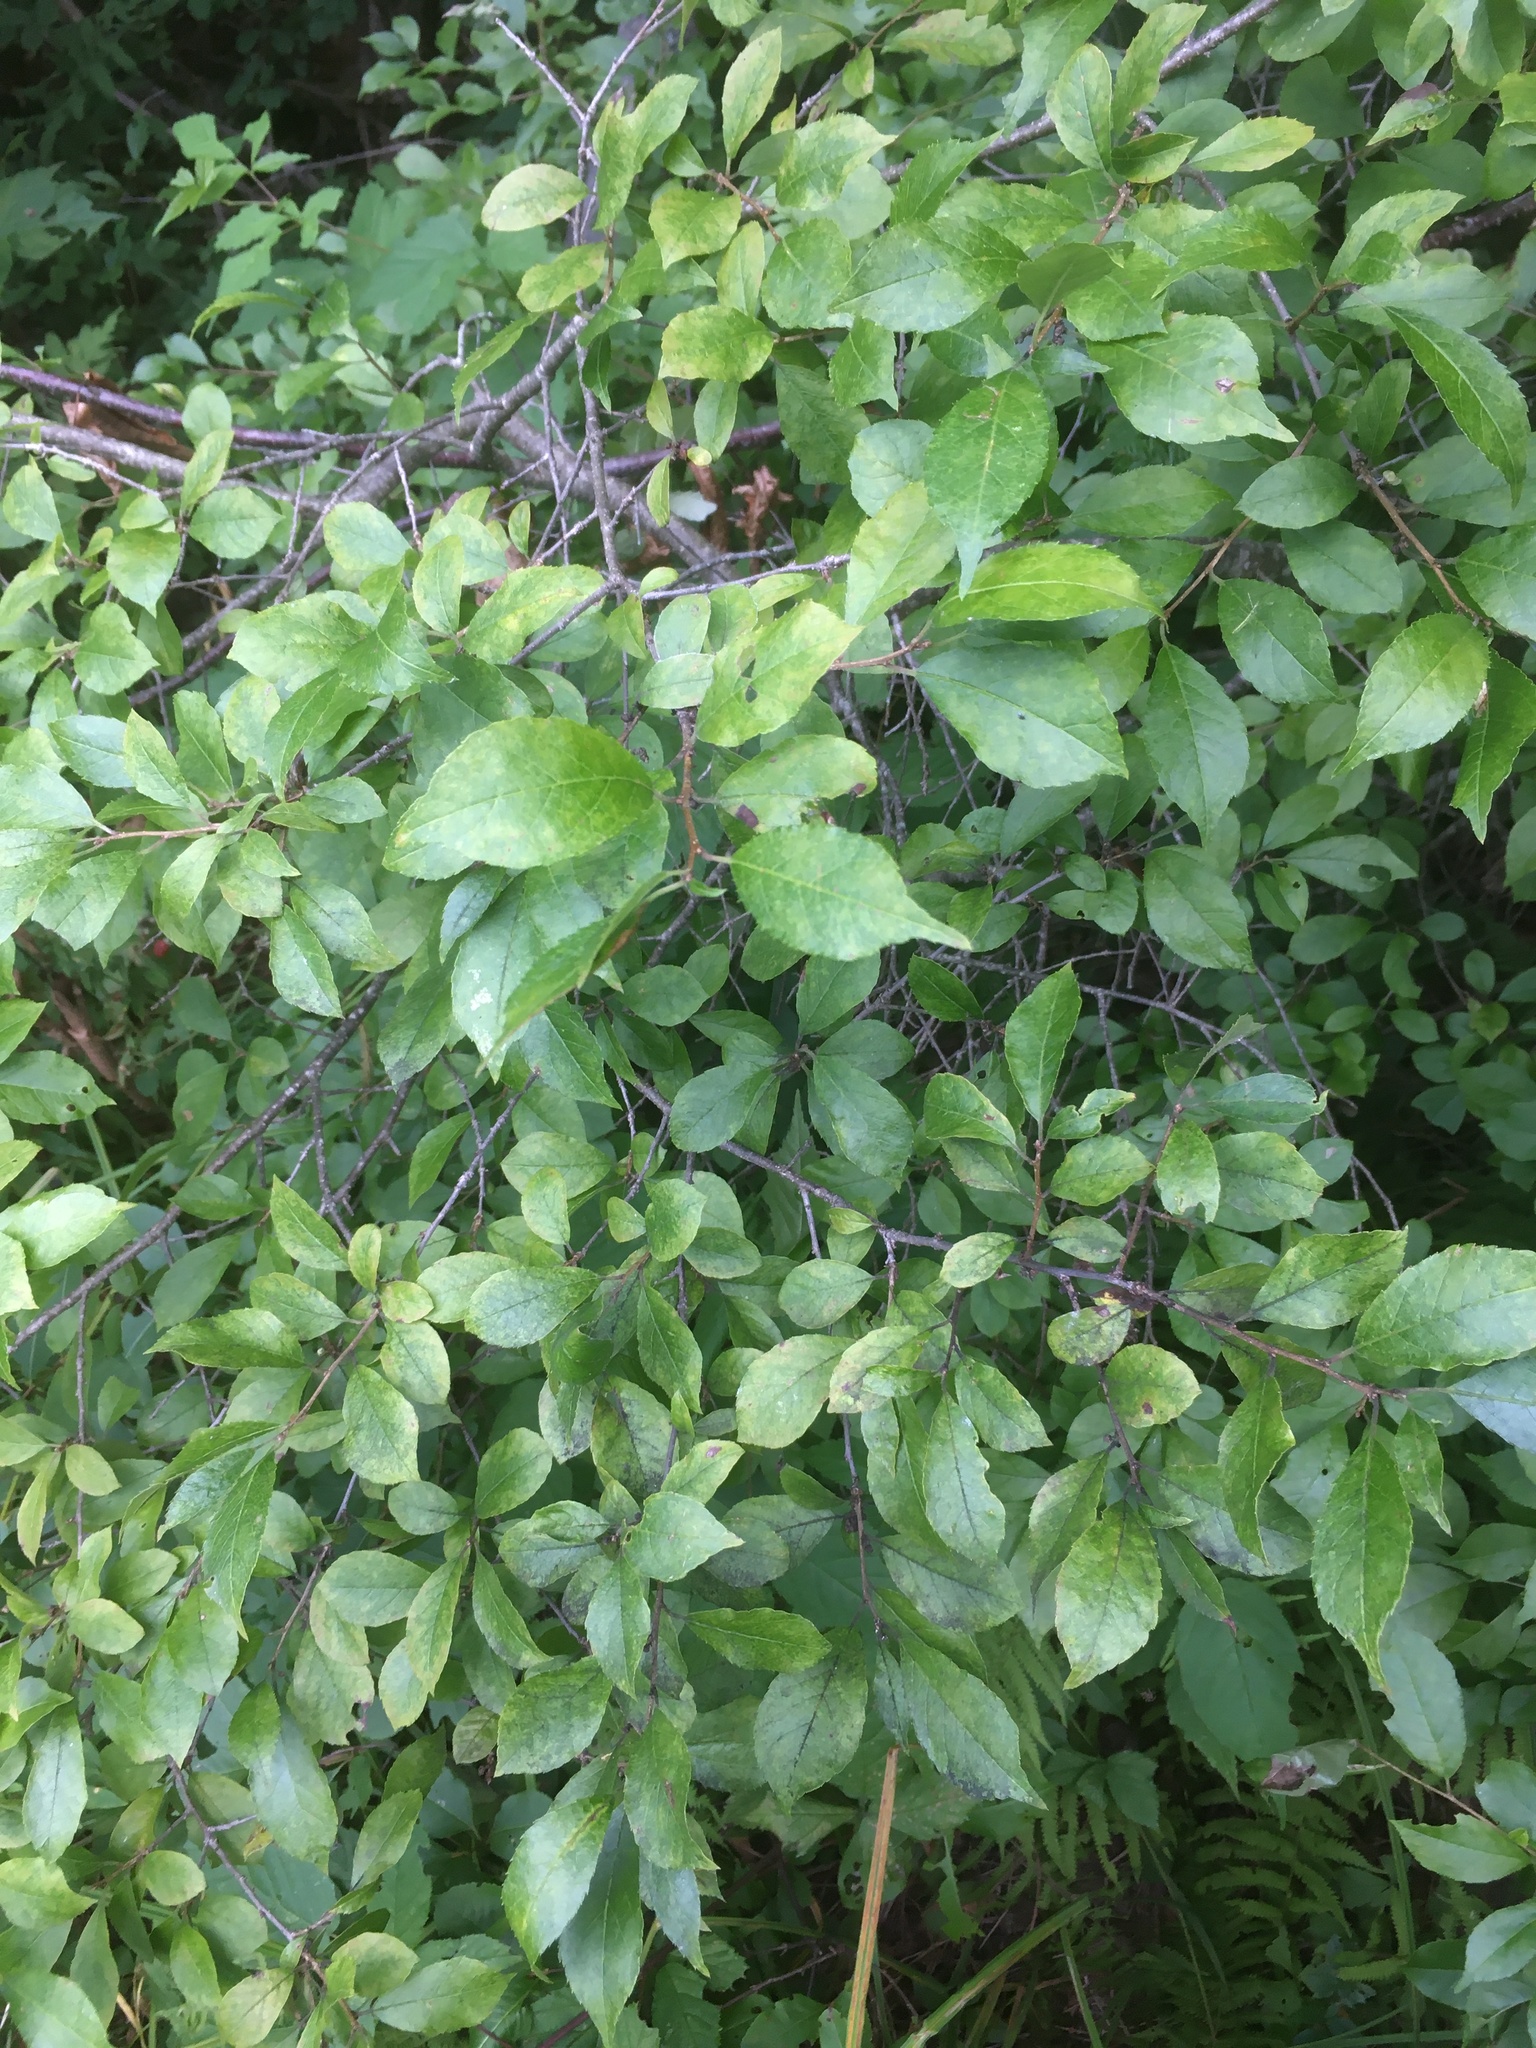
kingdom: Plantae
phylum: Tracheophyta
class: Magnoliopsida
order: Aquifoliales
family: Aquifoliaceae
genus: Ilex
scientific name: Ilex verticillata
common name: Virginia winterberry
